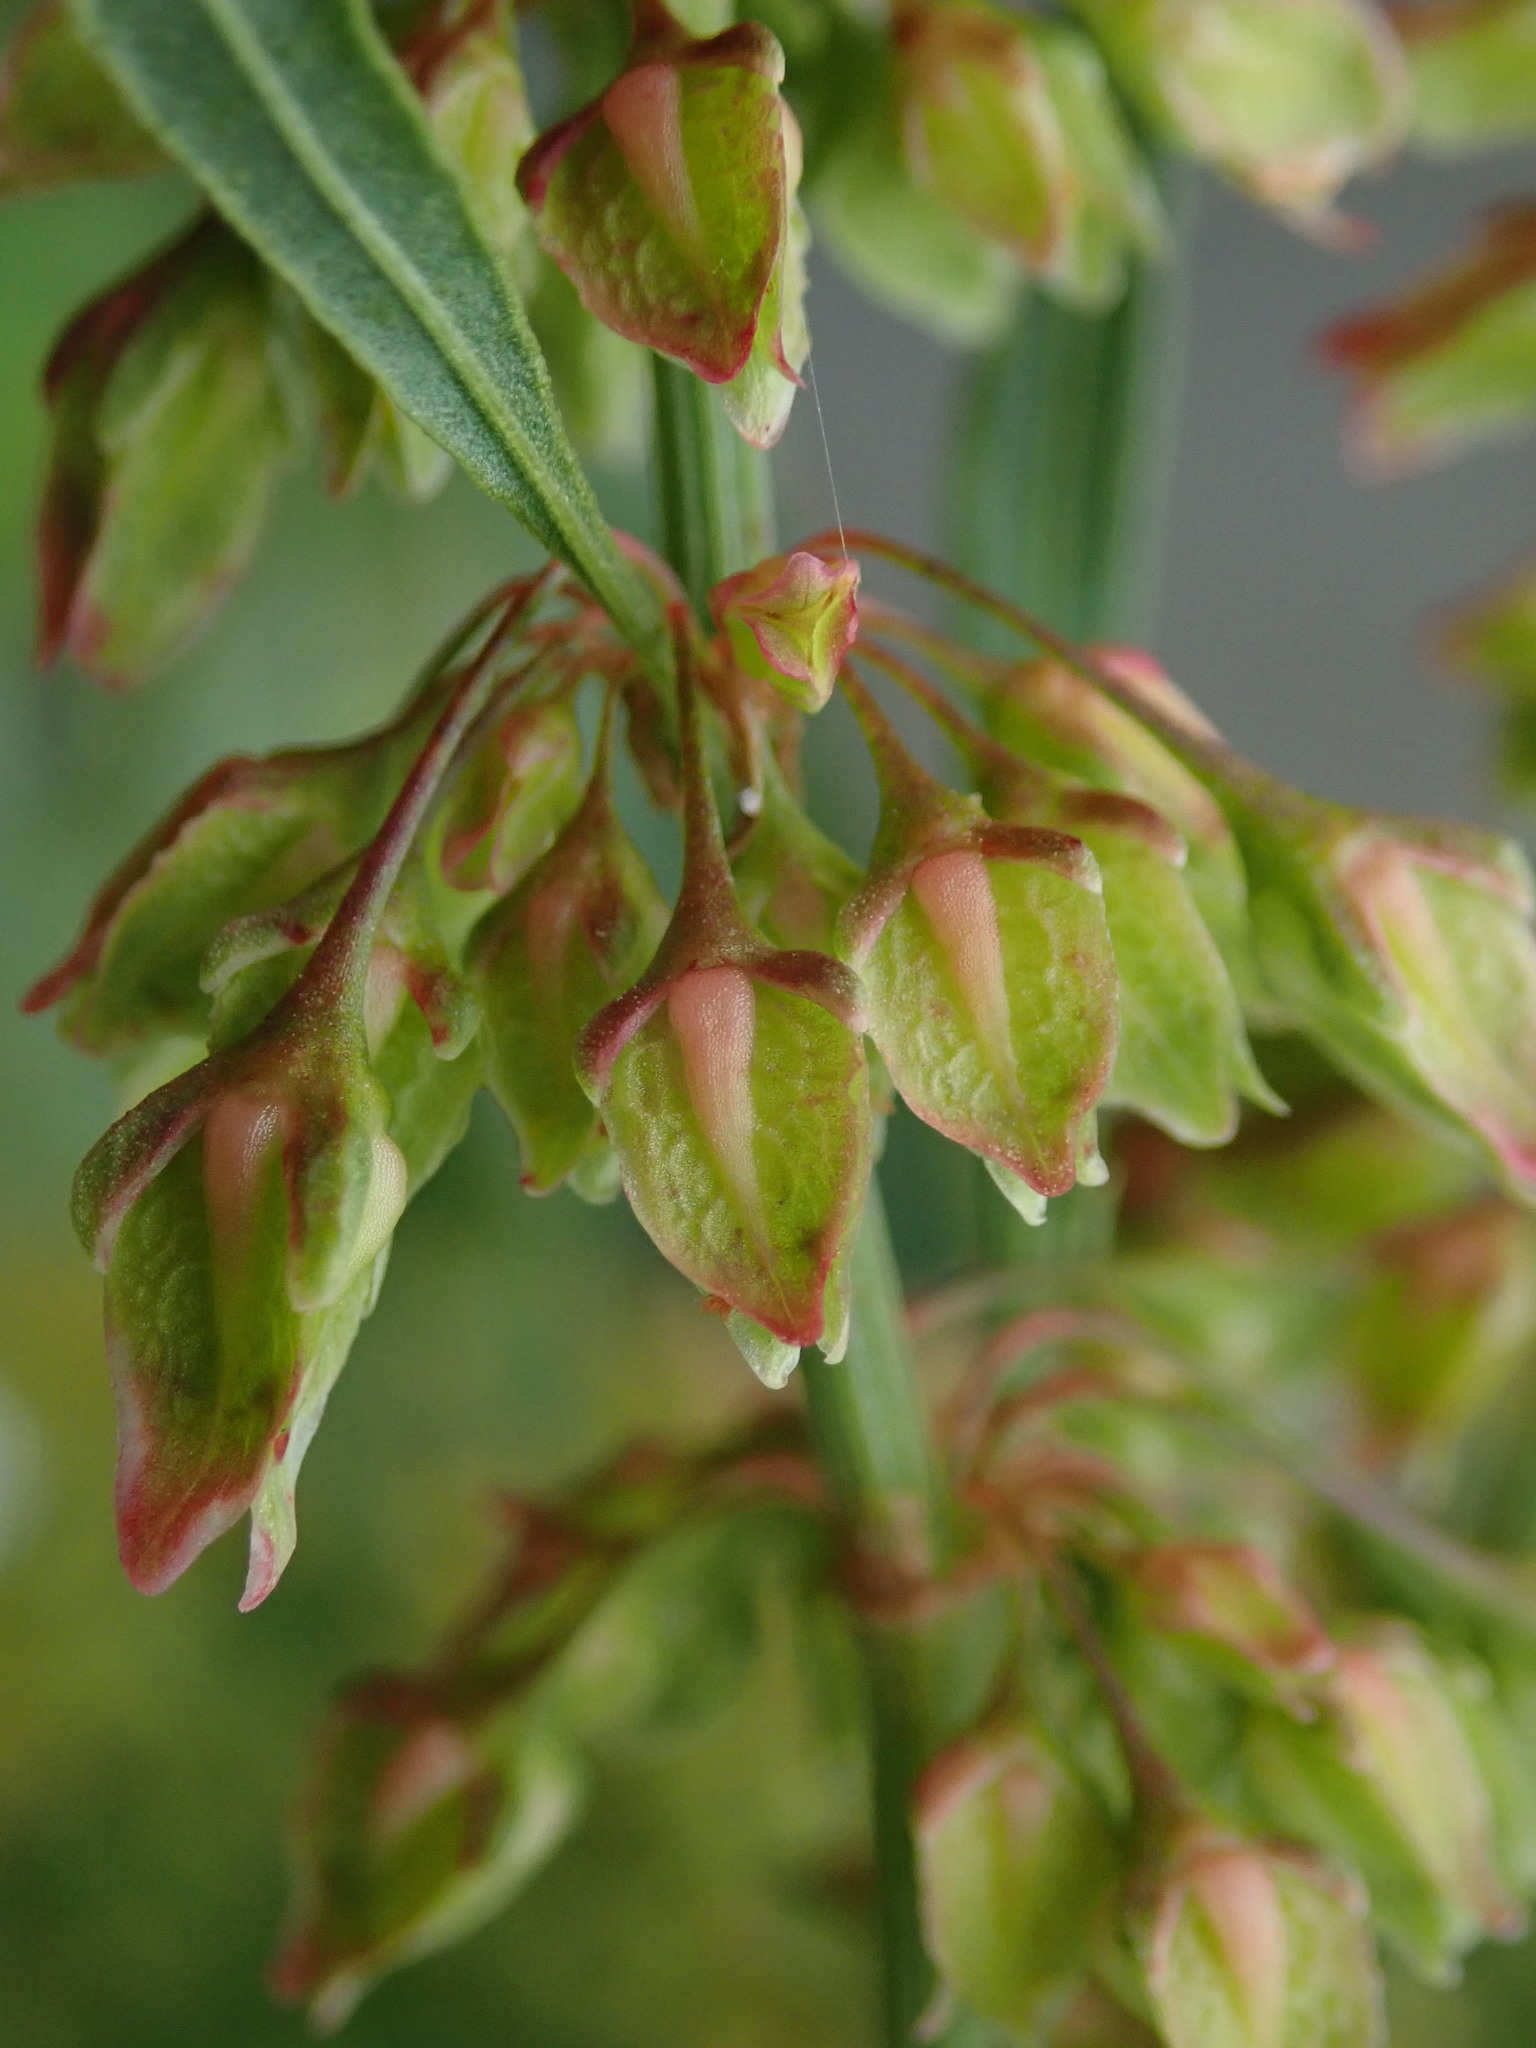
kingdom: Plantae
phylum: Tracheophyta
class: Magnoliopsida
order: Caryophyllales
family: Polygonaceae
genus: Rumex
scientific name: Rumex hydrolapathum
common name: Water dock
